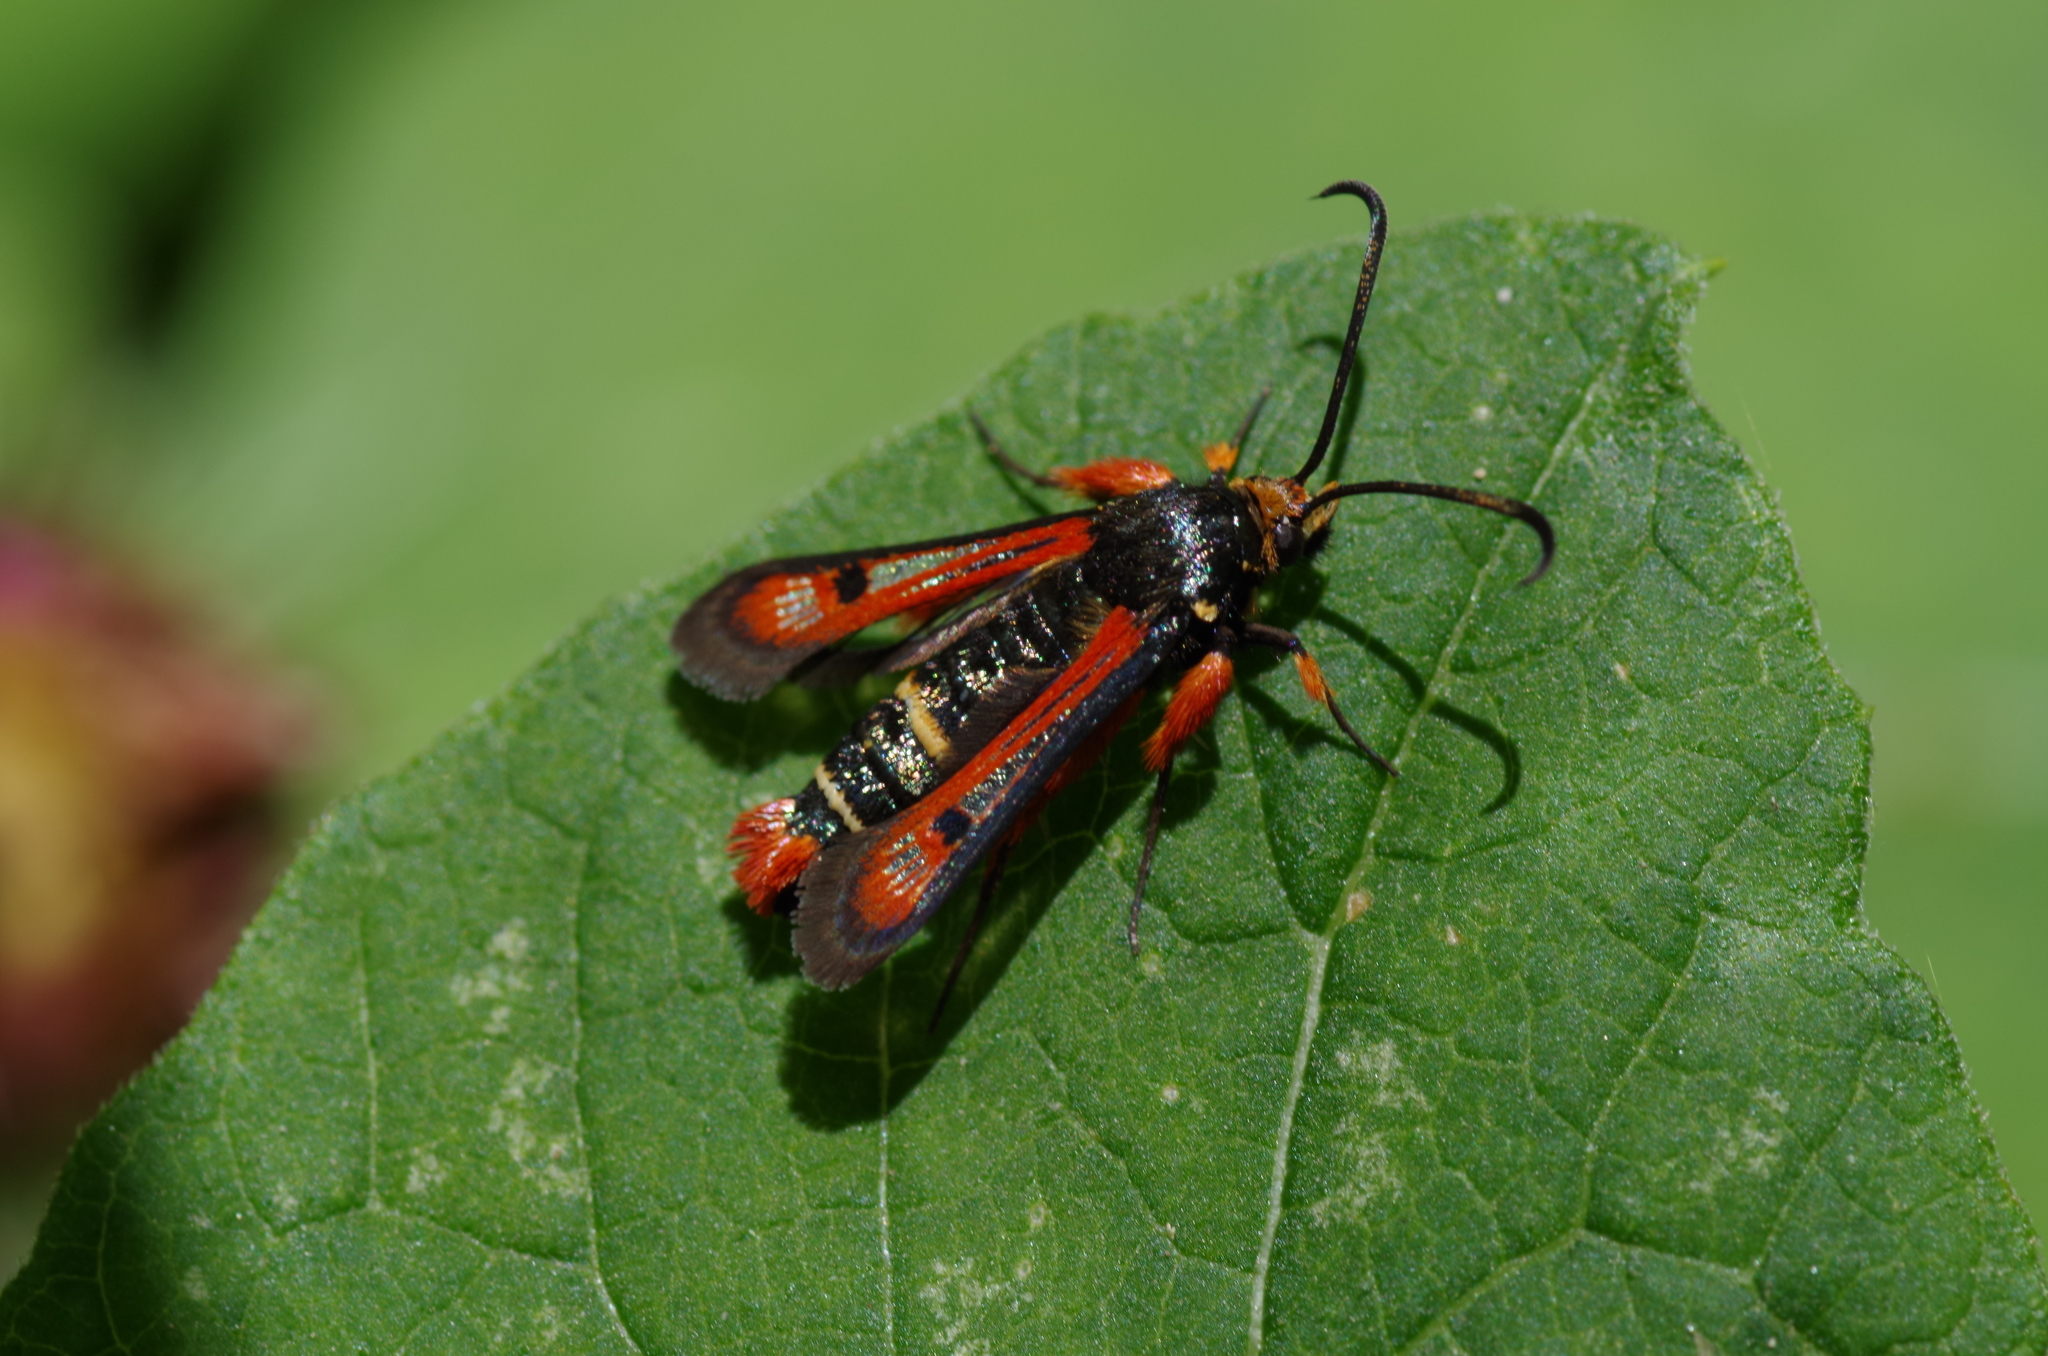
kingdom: Animalia
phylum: Arthropoda
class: Insecta
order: Lepidoptera
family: Sesiidae
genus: Pyropteron
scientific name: Pyropteron chrysidiforme
